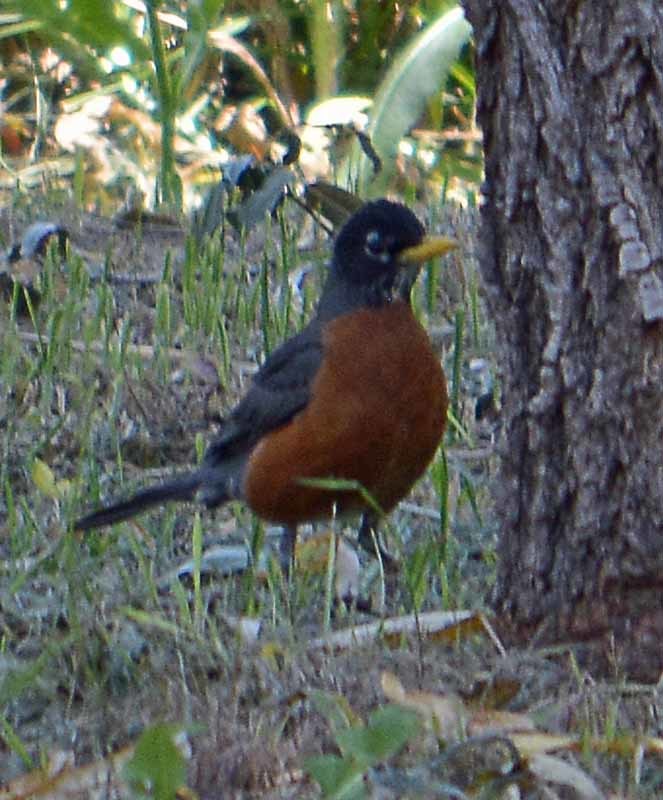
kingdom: Animalia
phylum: Chordata
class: Aves
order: Passeriformes
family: Turdidae
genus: Turdus
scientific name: Turdus migratorius
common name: American robin
